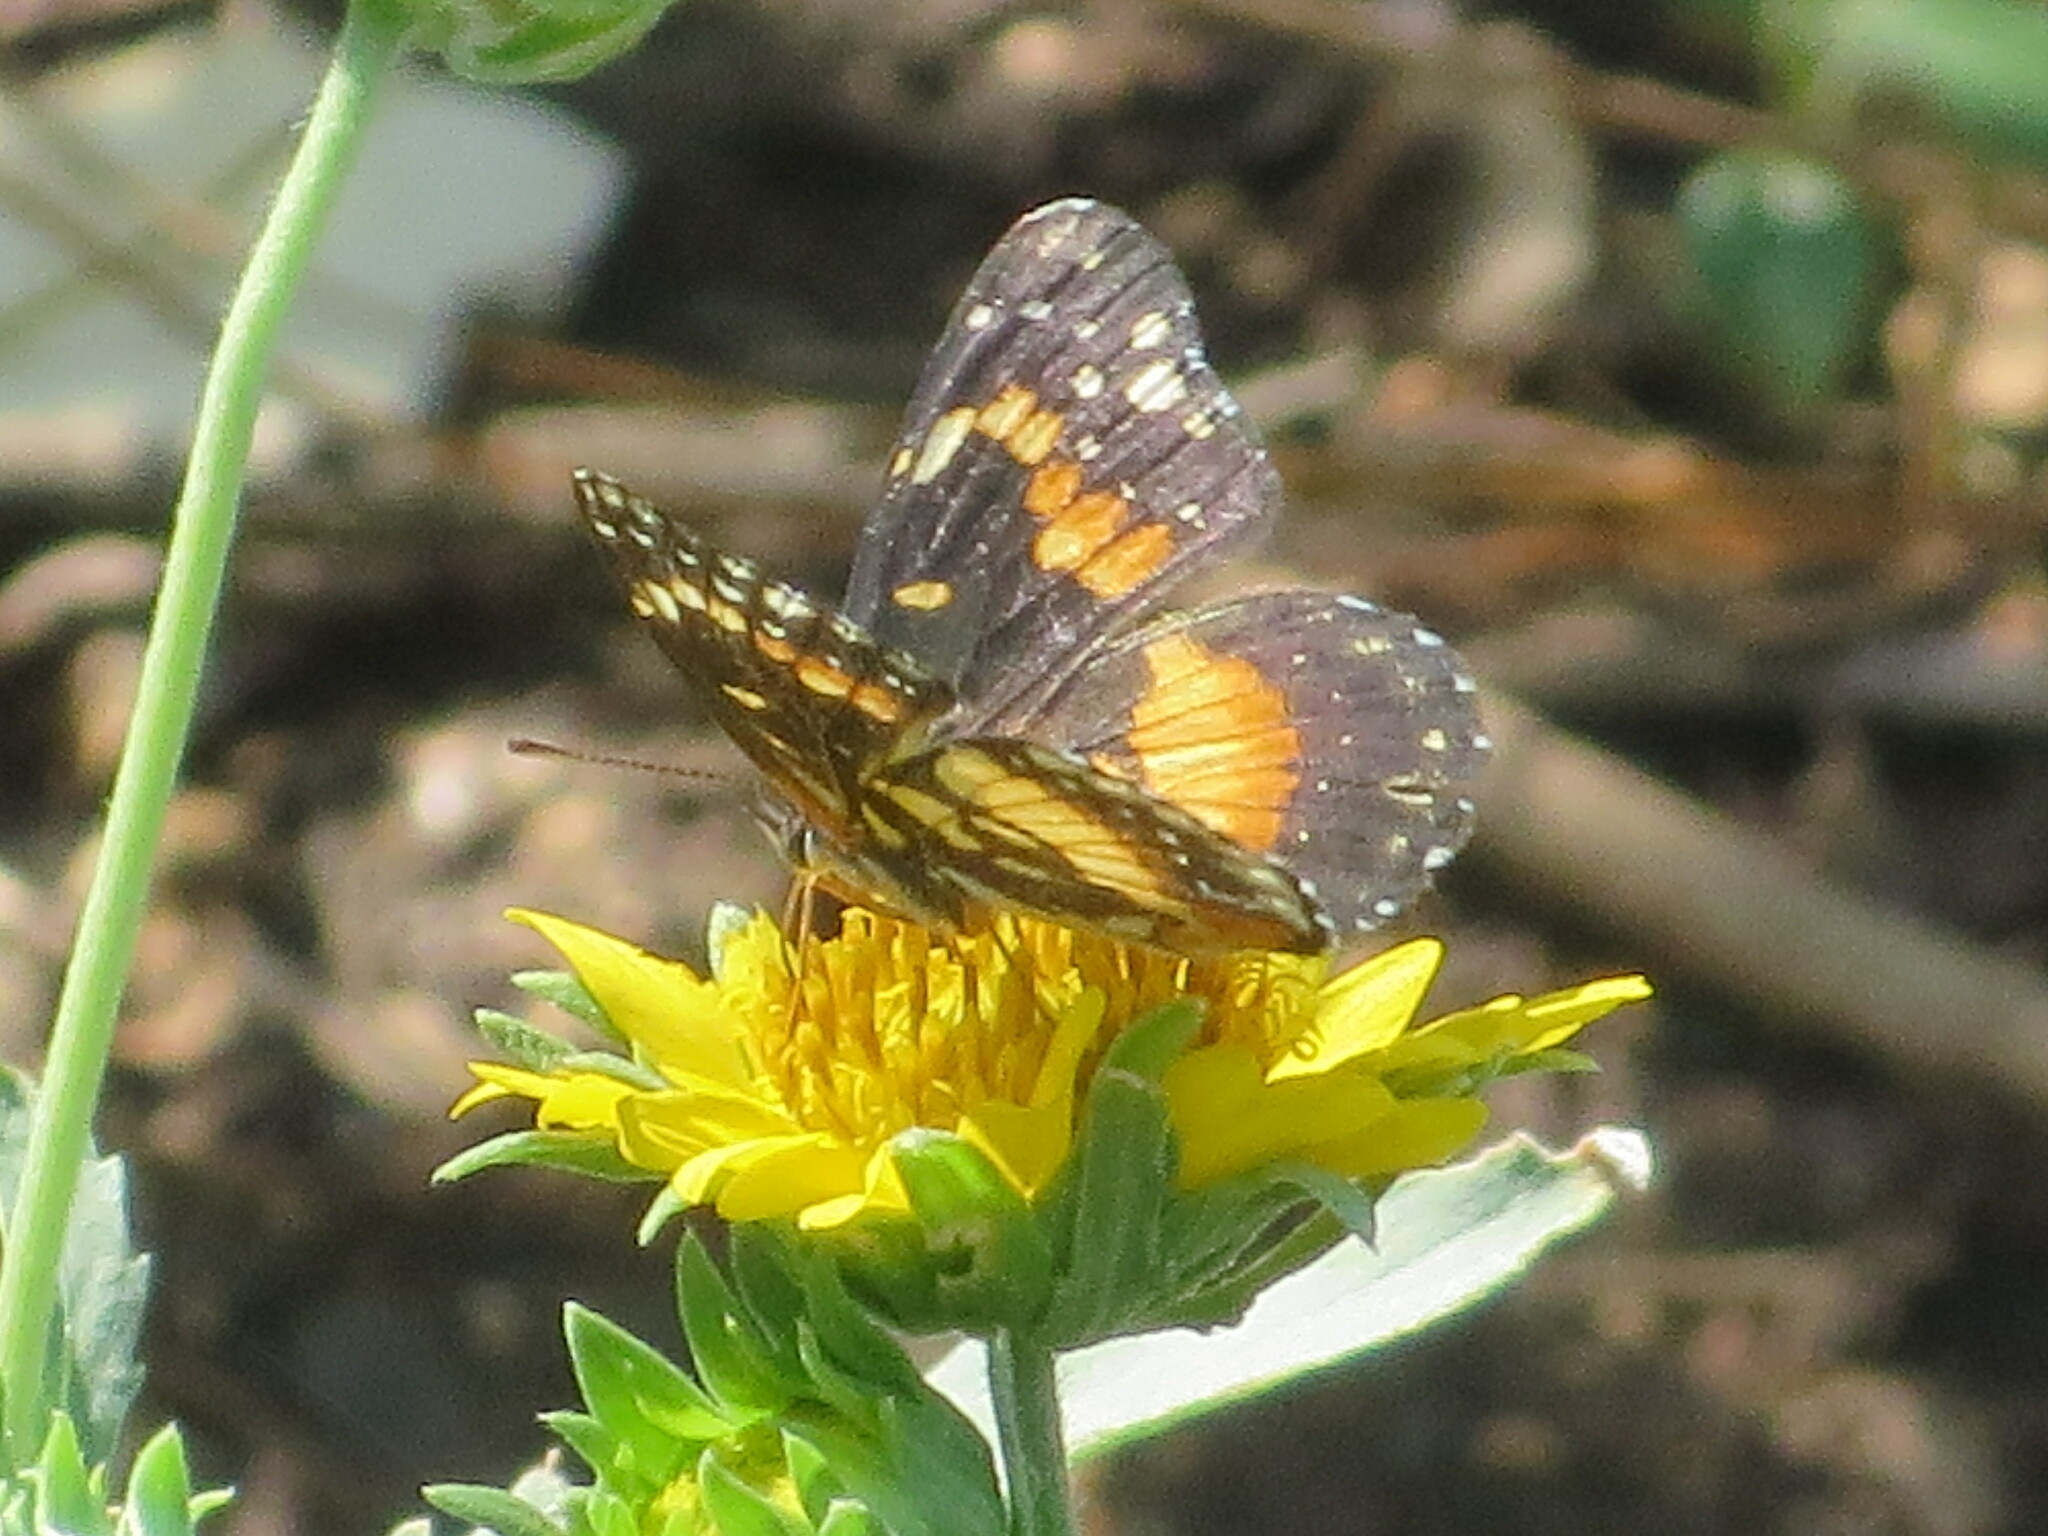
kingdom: Animalia
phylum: Arthropoda
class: Insecta
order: Lepidoptera
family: Nymphalidae
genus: Chlosyne
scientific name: Chlosyne lacinia
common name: Bordered patch
